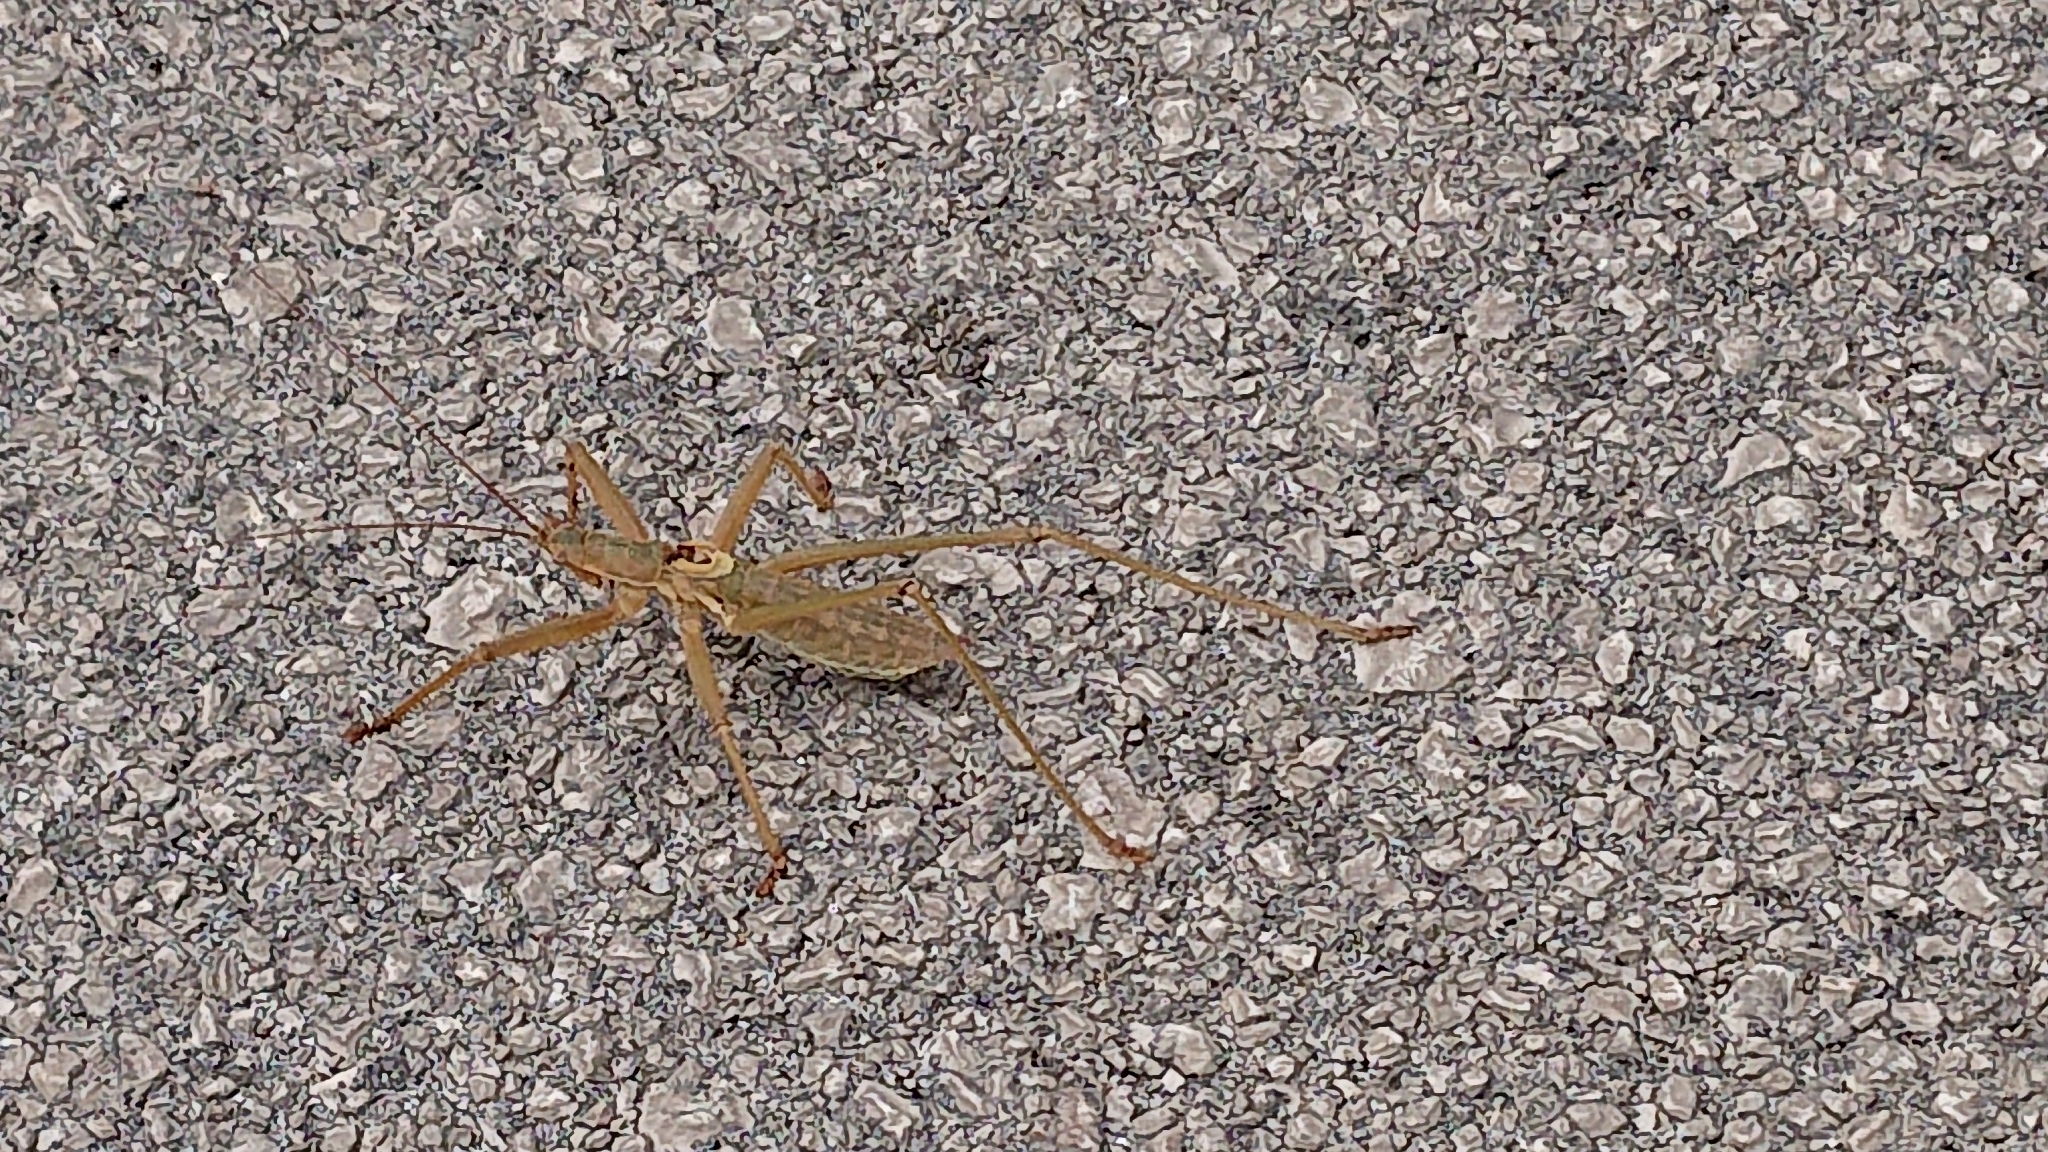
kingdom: Animalia
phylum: Arthropoda
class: Insecta
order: Orthoptera
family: Tettigoniidae
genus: Saga
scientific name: Saga hellenica
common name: Greek predatory bush-cricket
